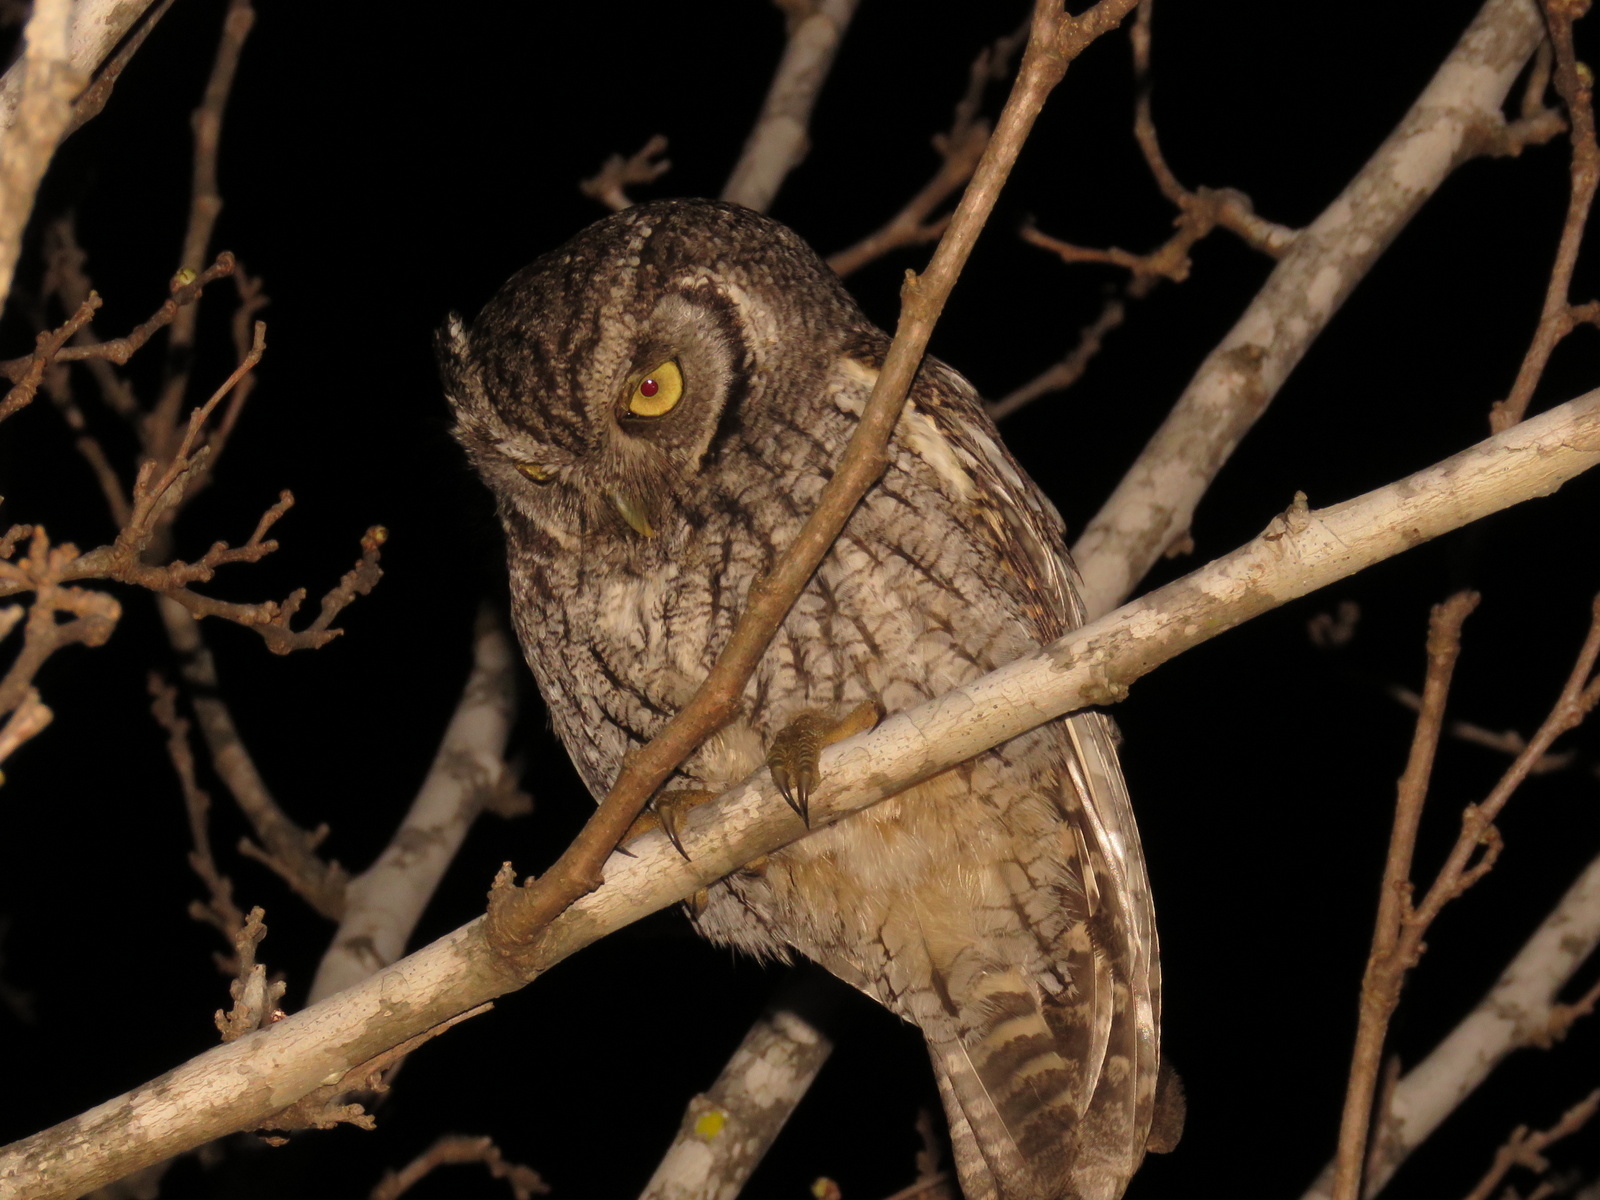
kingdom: Animalia
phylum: Chordata
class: Aves
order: Strigiformes
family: Strigidae
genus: Megascops
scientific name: Megascops choliba
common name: Tropical screech-owl
